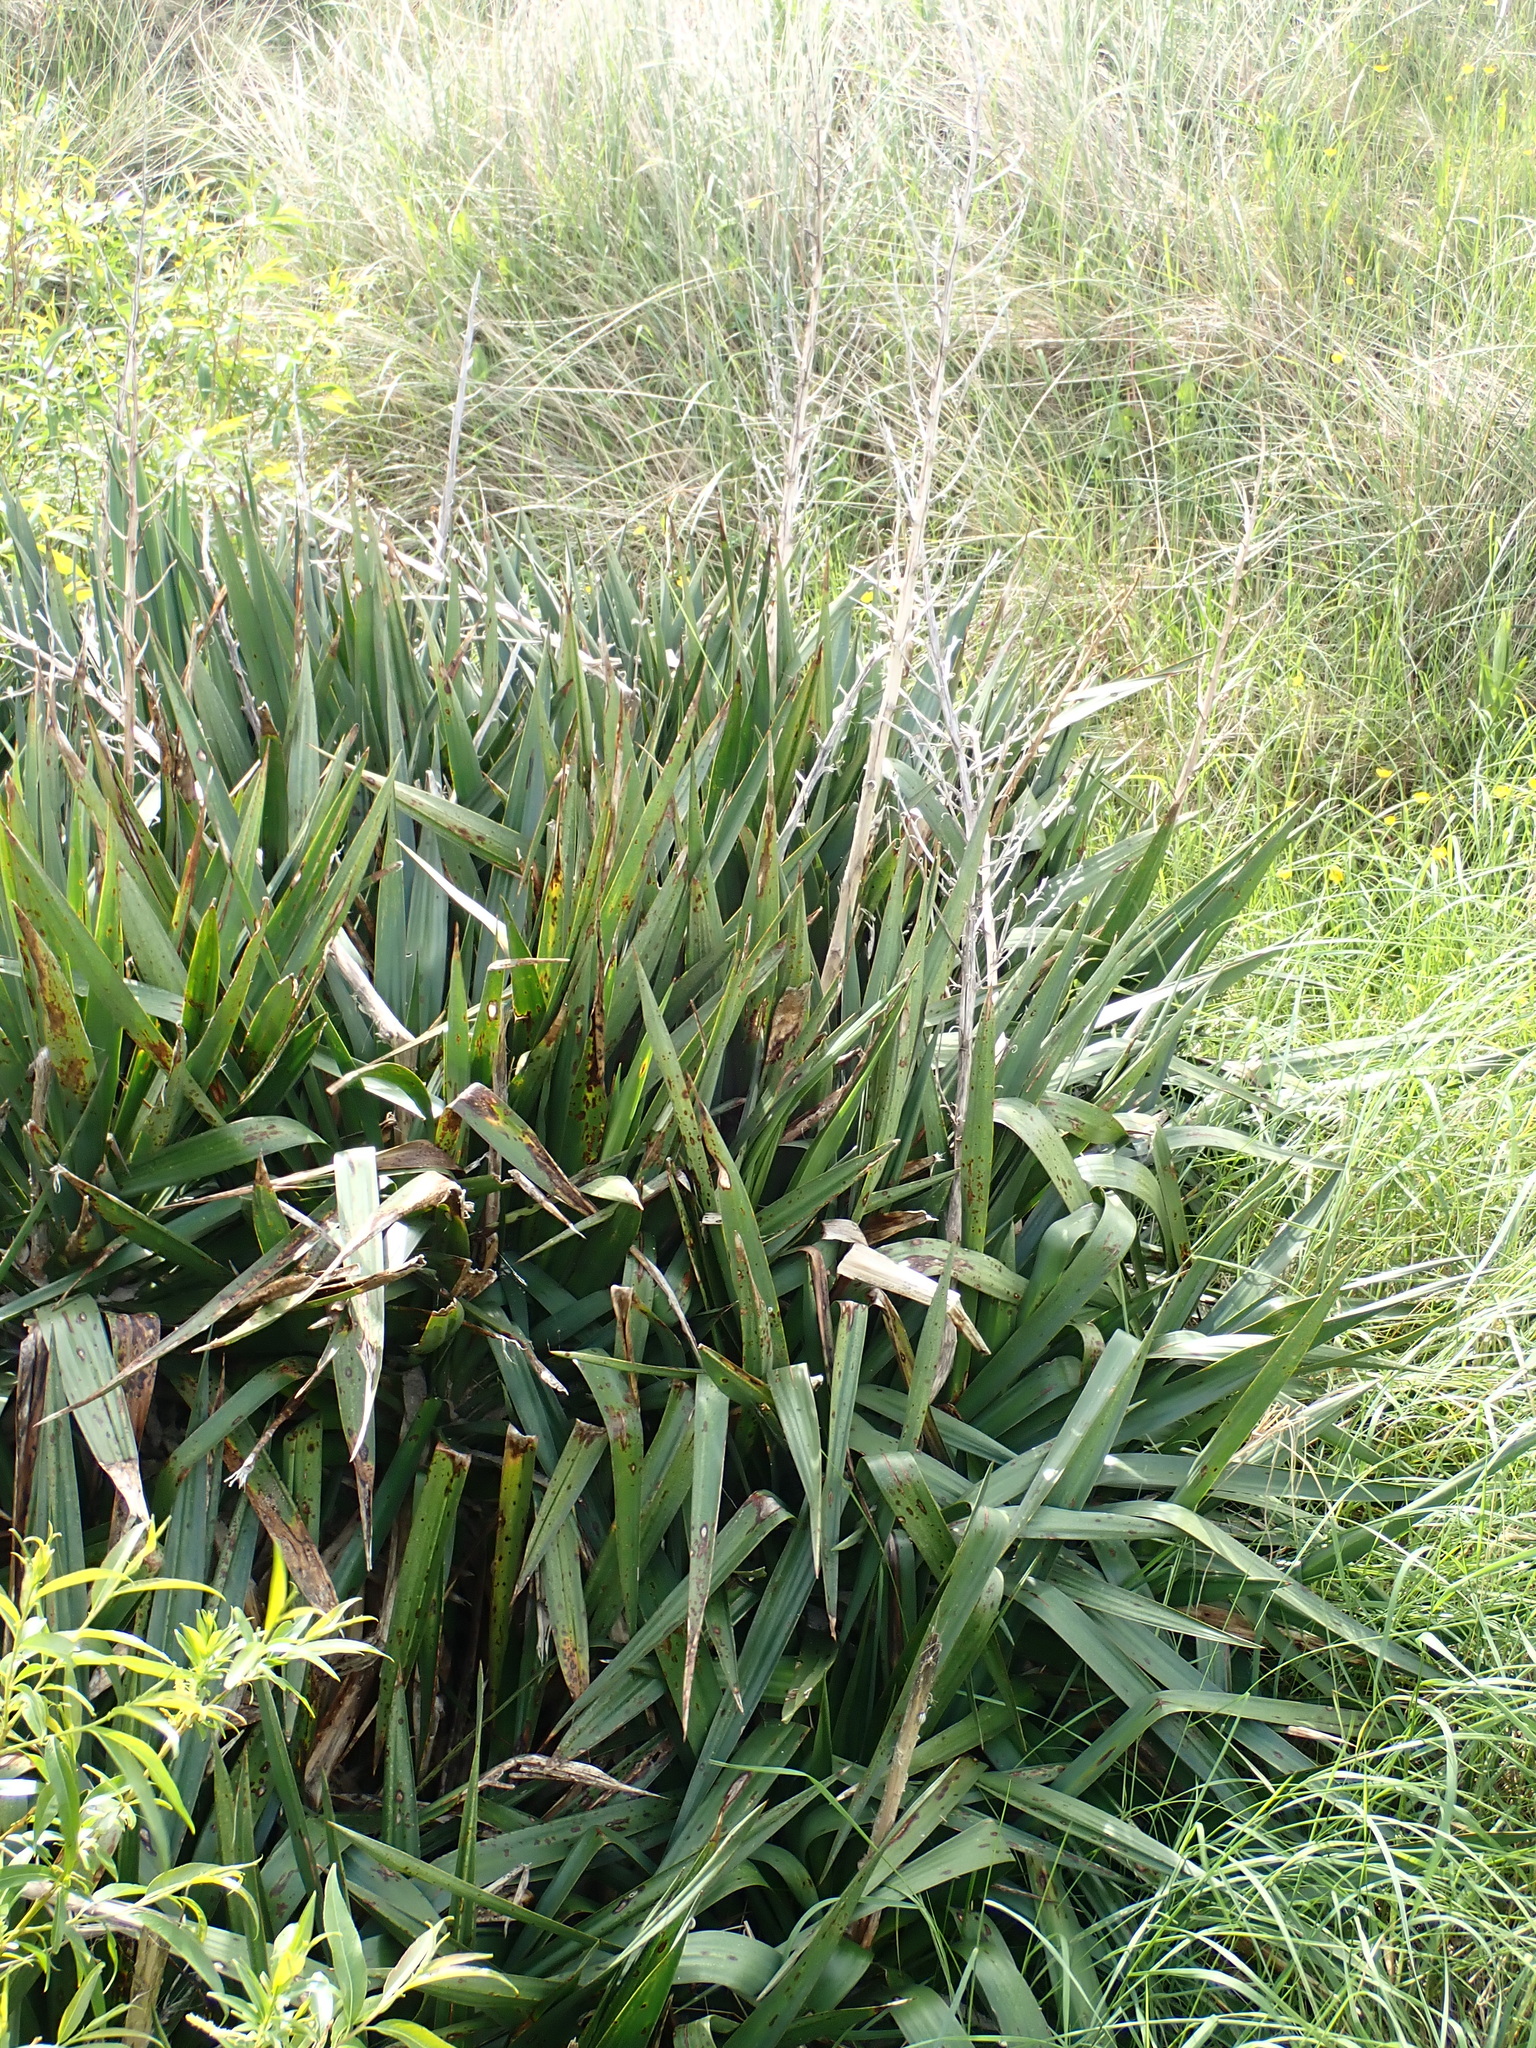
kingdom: Plantae
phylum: Tracheophyta
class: Liliopsida
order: Asparagales
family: Asparagaceae
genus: Yucca
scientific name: Yucca gloriosa
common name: Spanish-dagger
